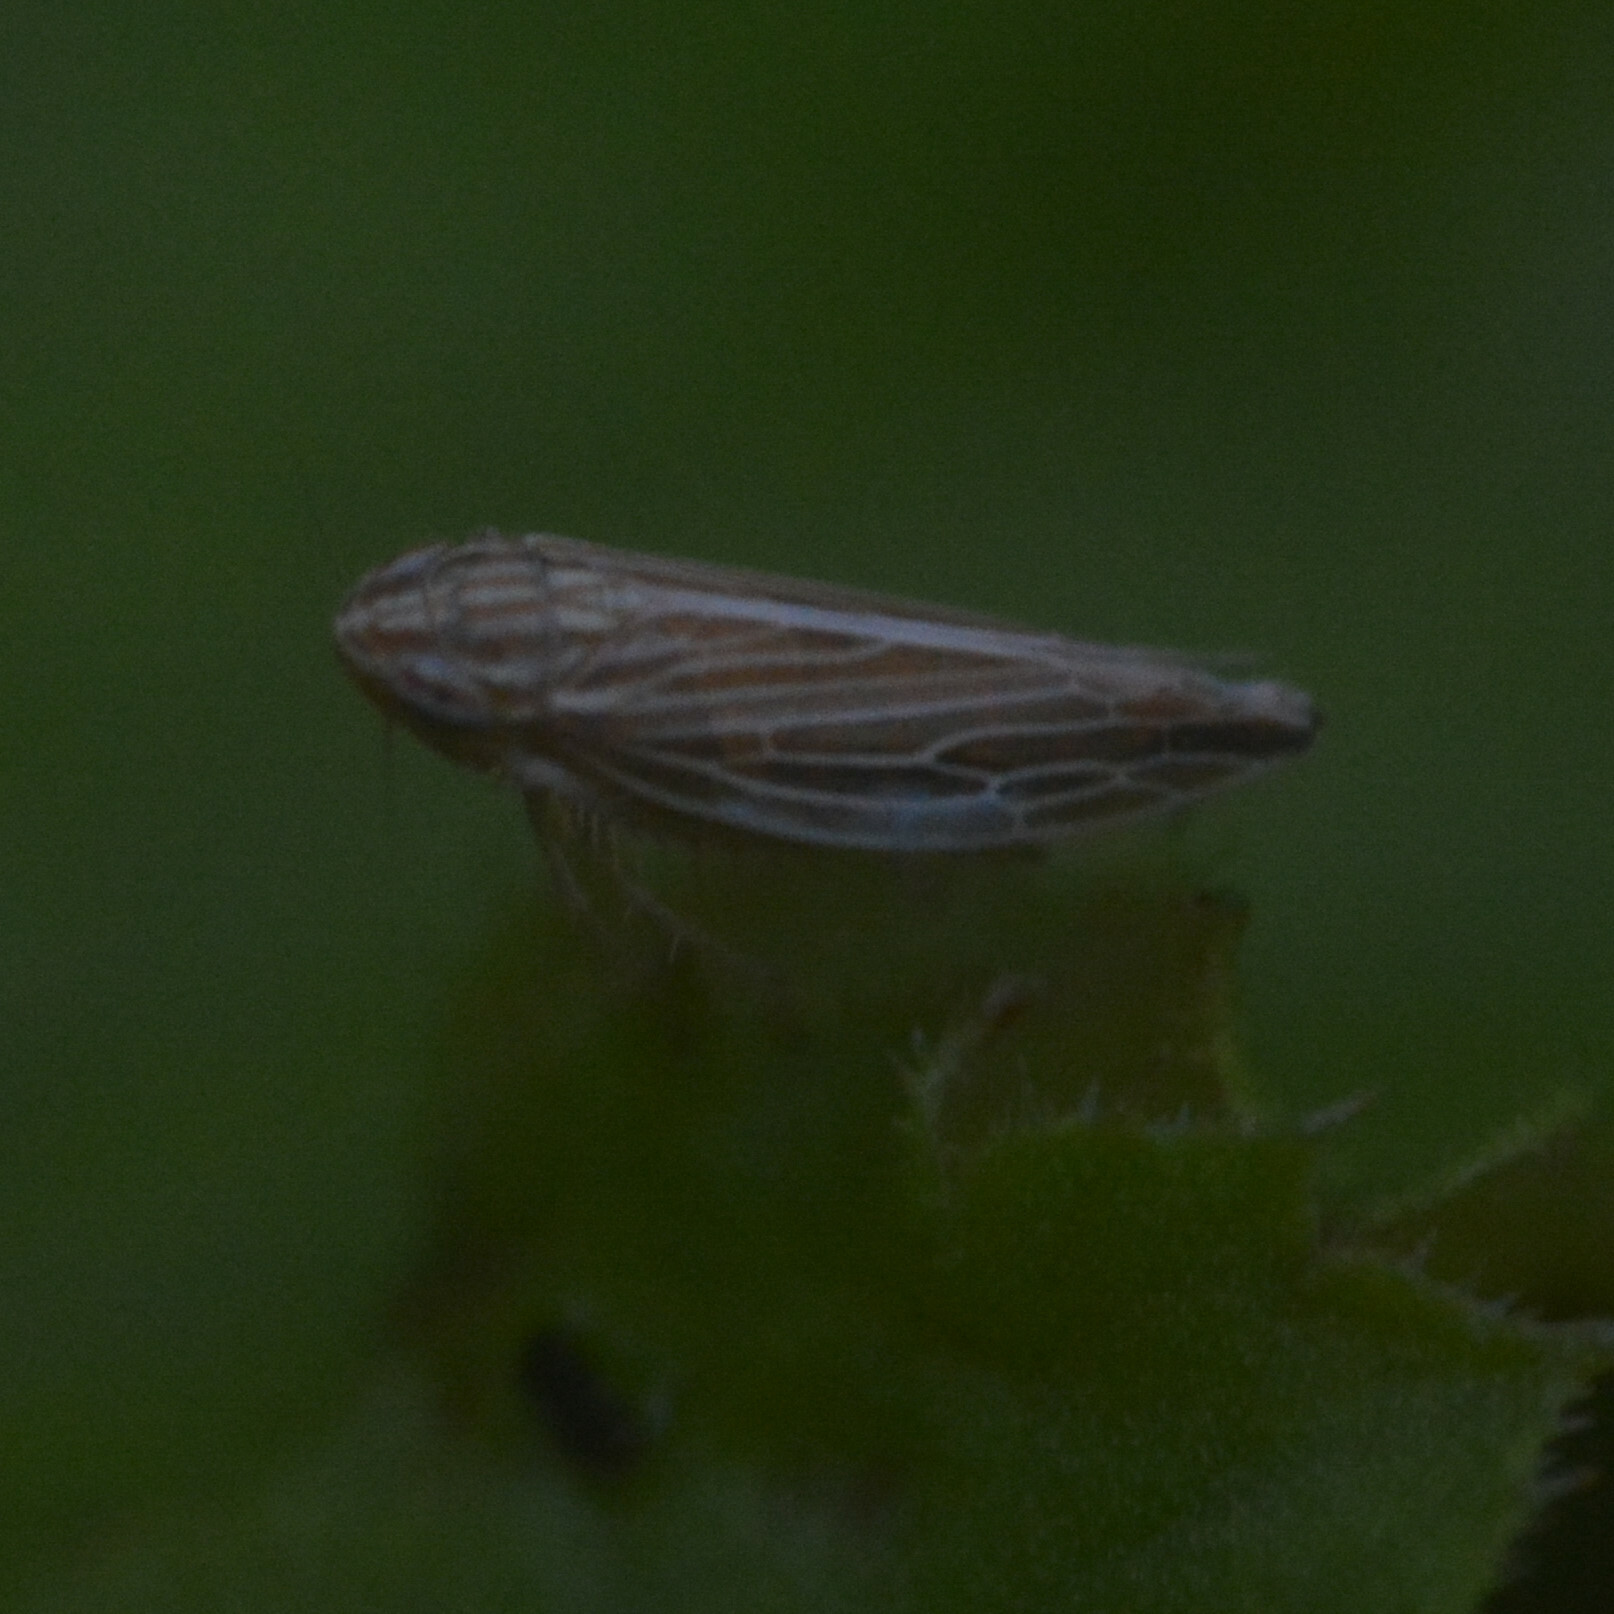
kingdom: Animalia
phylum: Arthropoda
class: Insecta
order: Hemiptera
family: Cicadellidae
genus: Mocydia
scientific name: Mocydia crocea
